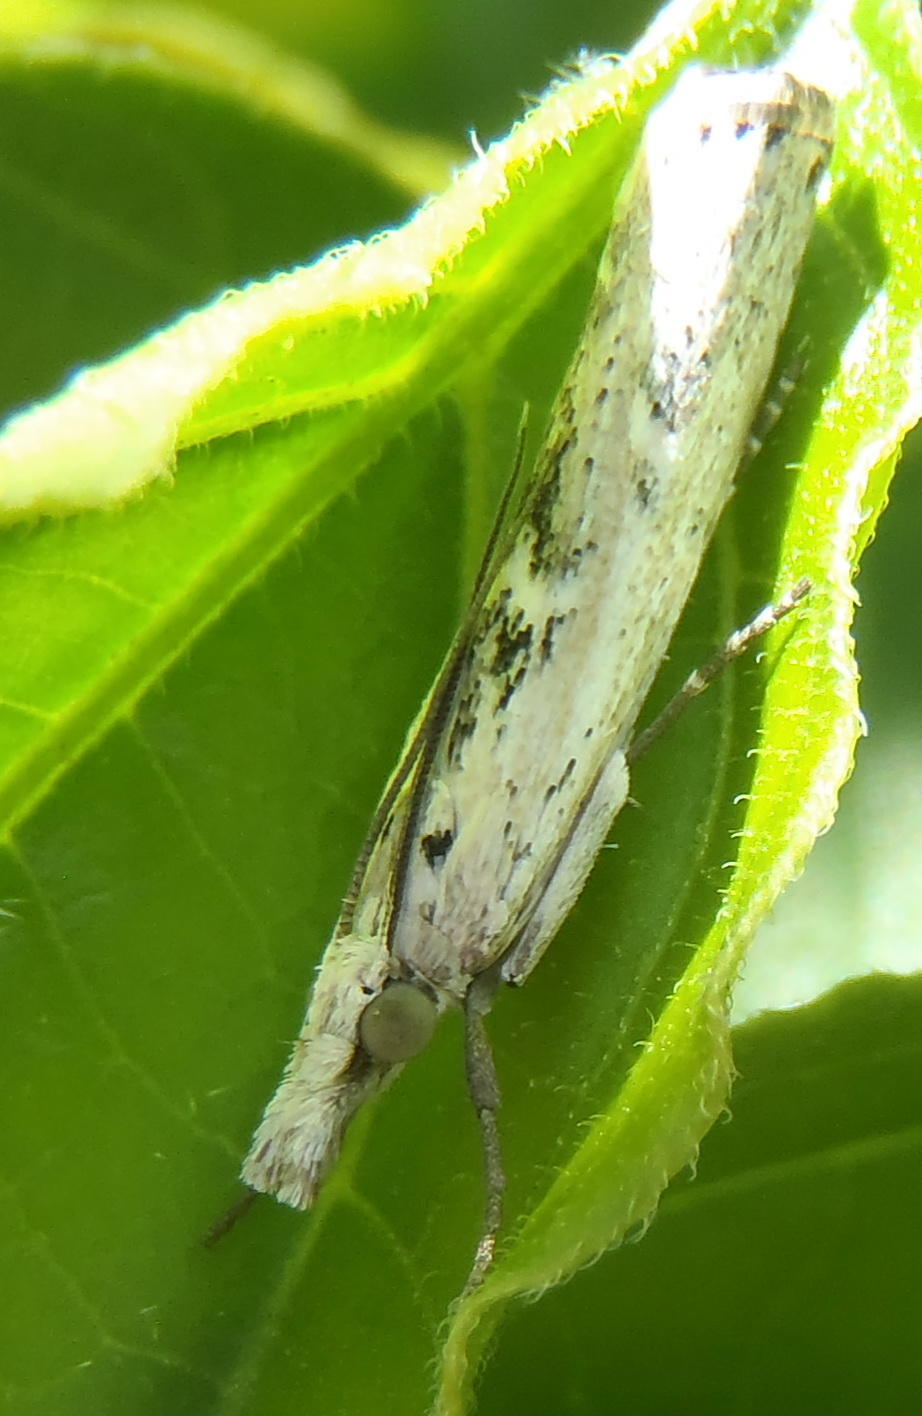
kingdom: Animalia
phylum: Arthropoda
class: Insecta
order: Lepidoptera
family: Crambidae
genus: Crambus
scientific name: Crambus sparsellus
